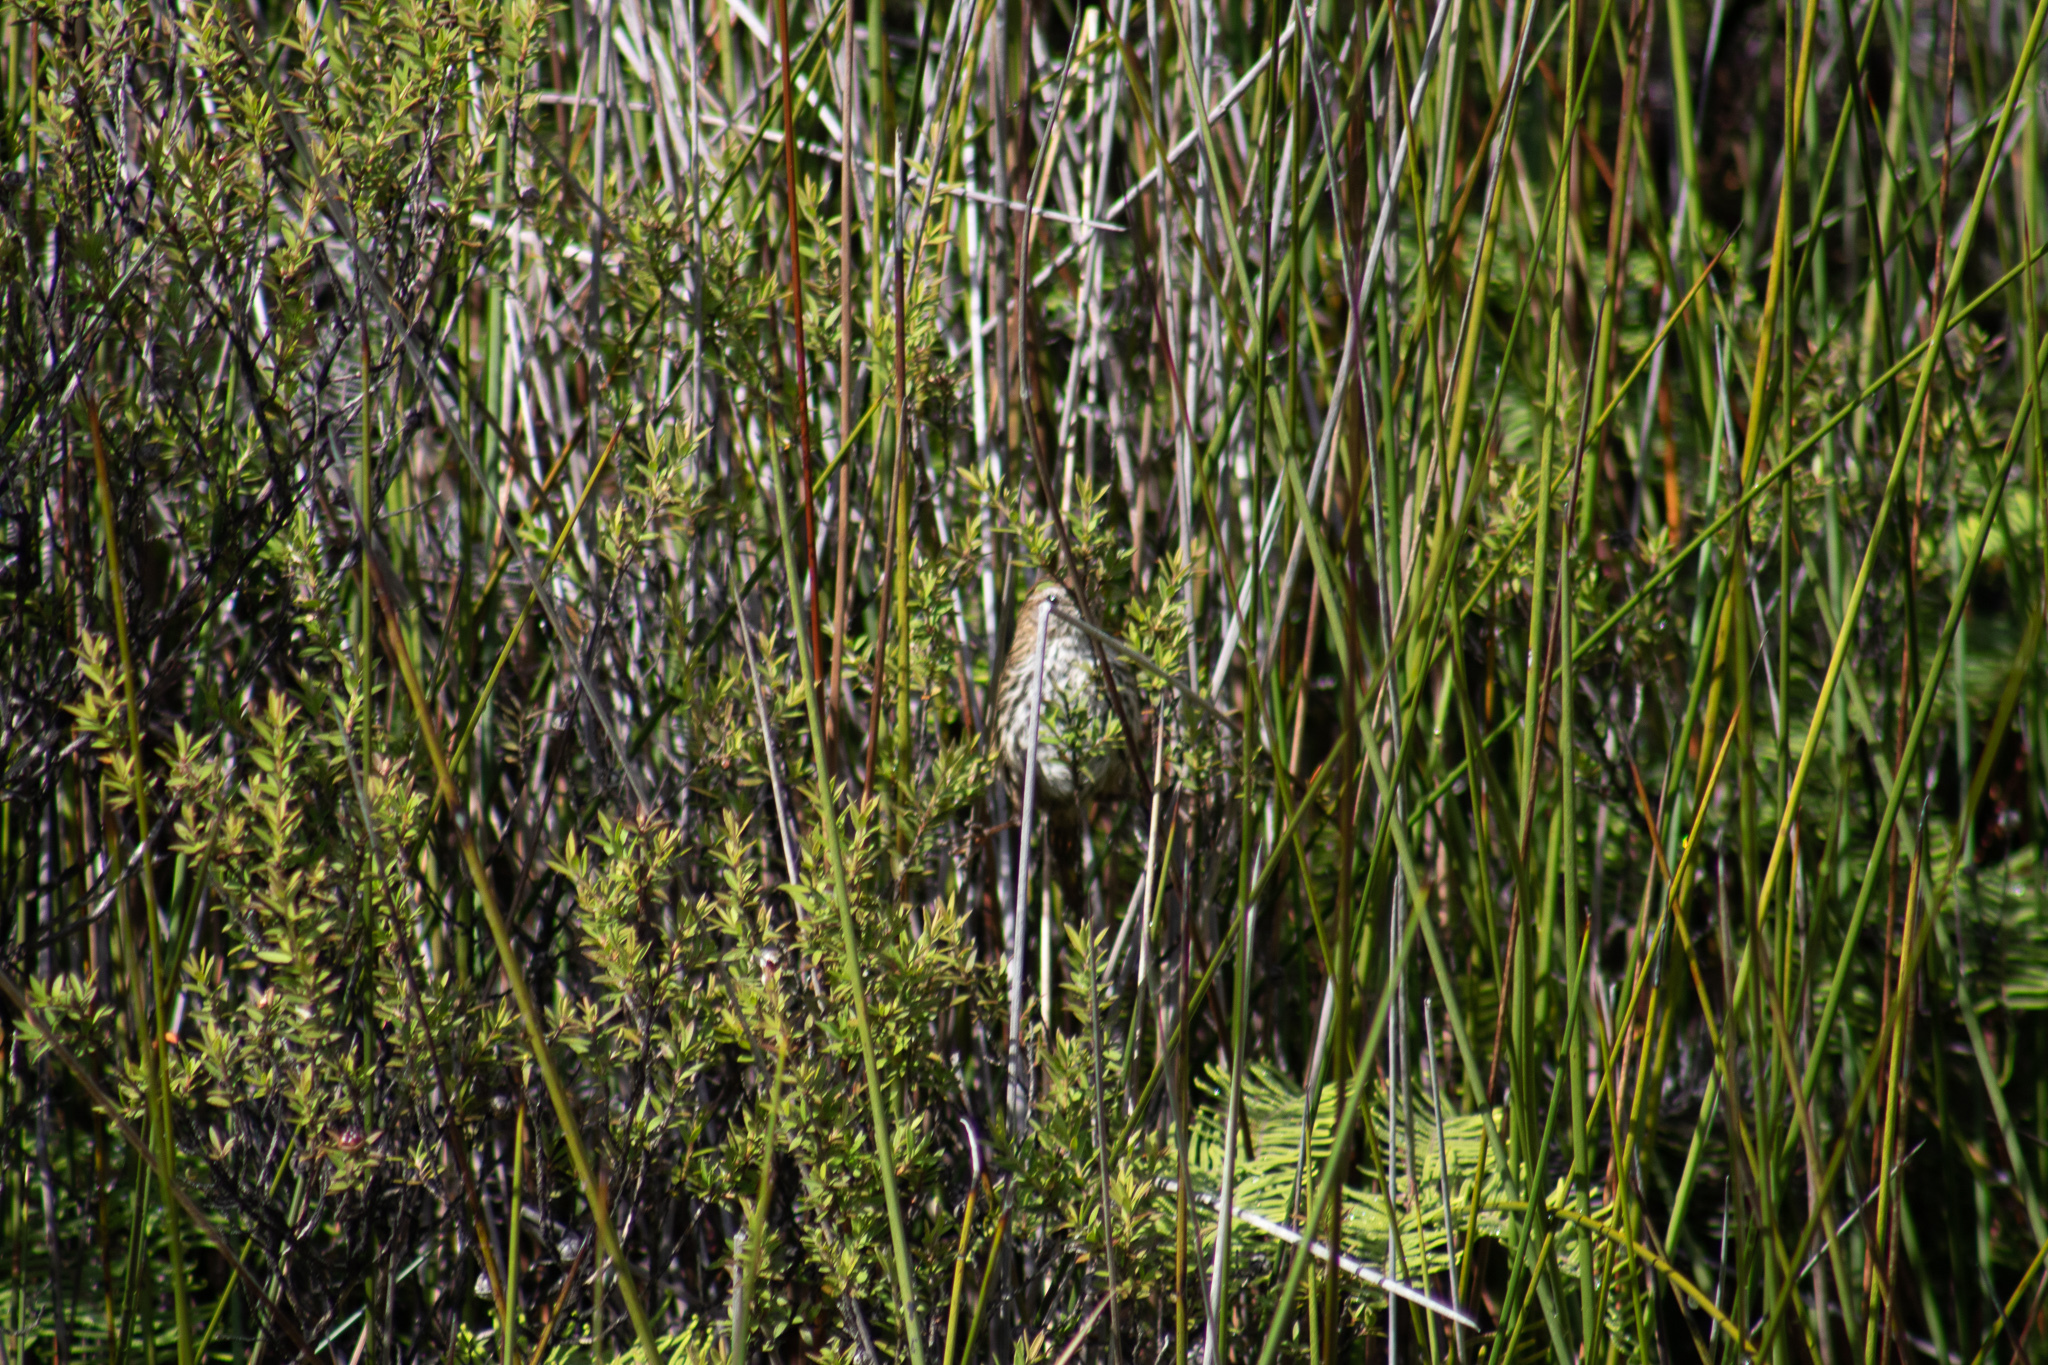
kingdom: Animalia
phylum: Chordata
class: Aves
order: Passeriformes
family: Locustellidae
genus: Megalurus
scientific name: Megalurus punctatus
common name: New zealand fernbird
